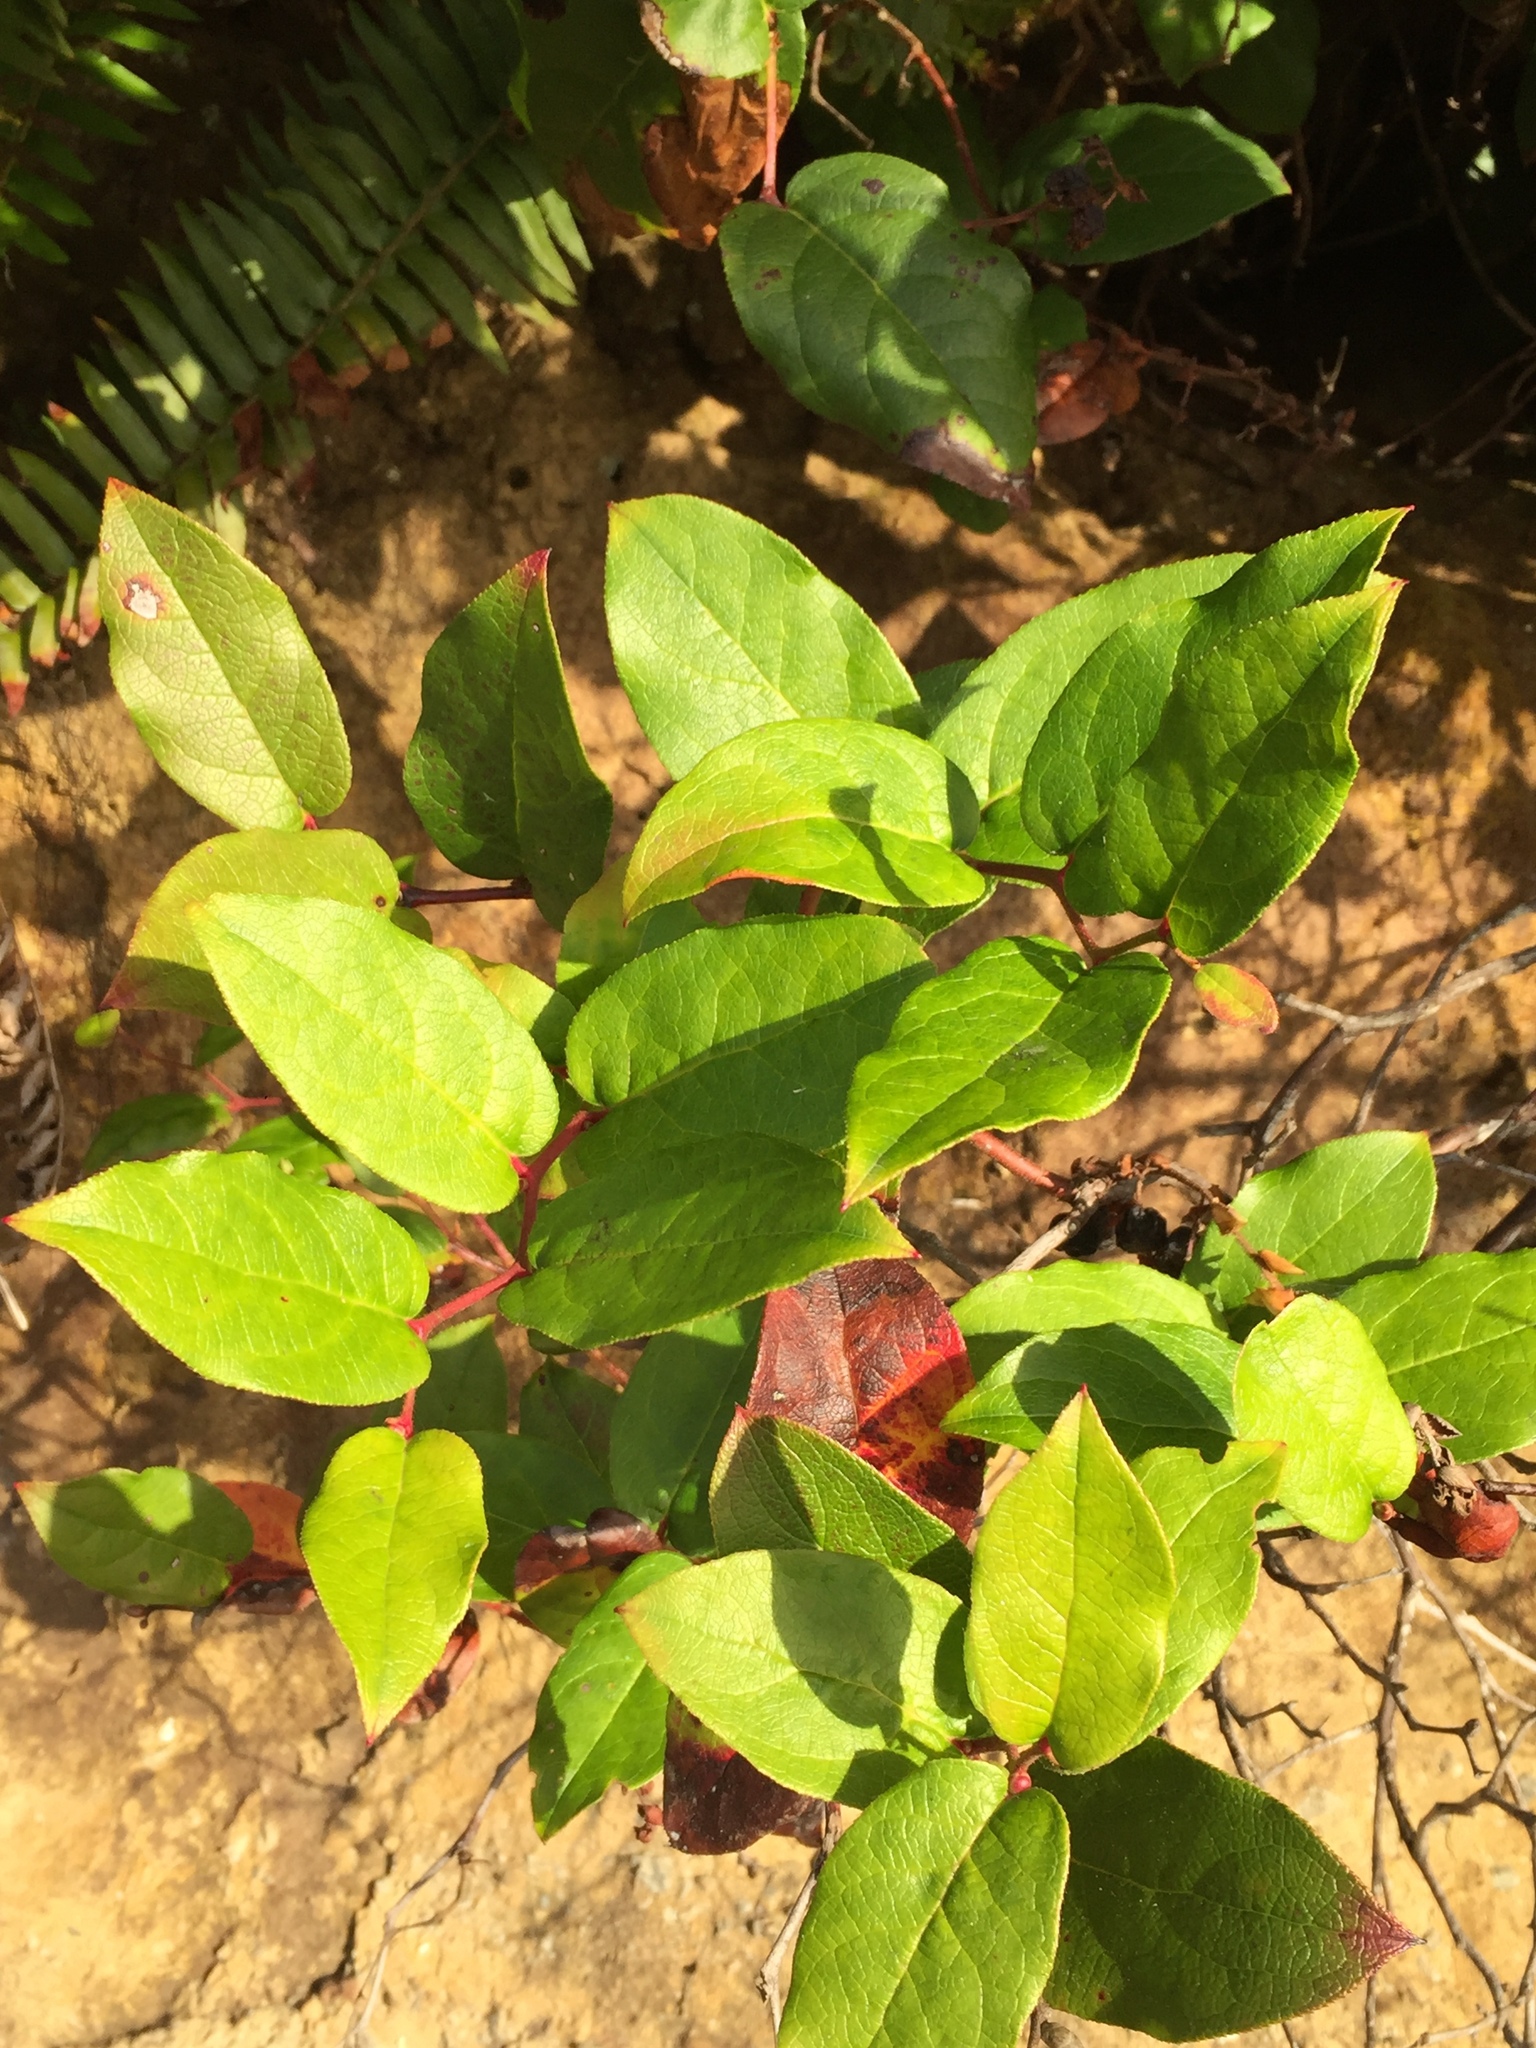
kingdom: Plantae
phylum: Tracheophyta
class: Magnoliopsida
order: Ericales
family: Ericaceae
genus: Gaultheria
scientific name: Gaultheria shallon
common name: Shallon
